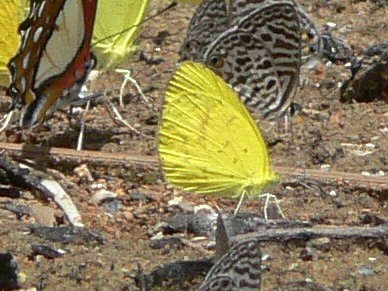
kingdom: Animalia
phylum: Arthropoda
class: Insecta
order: Lepidoptera
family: Pieridae
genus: Eurema
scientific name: Eurema brigitta
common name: Small grass yellow
